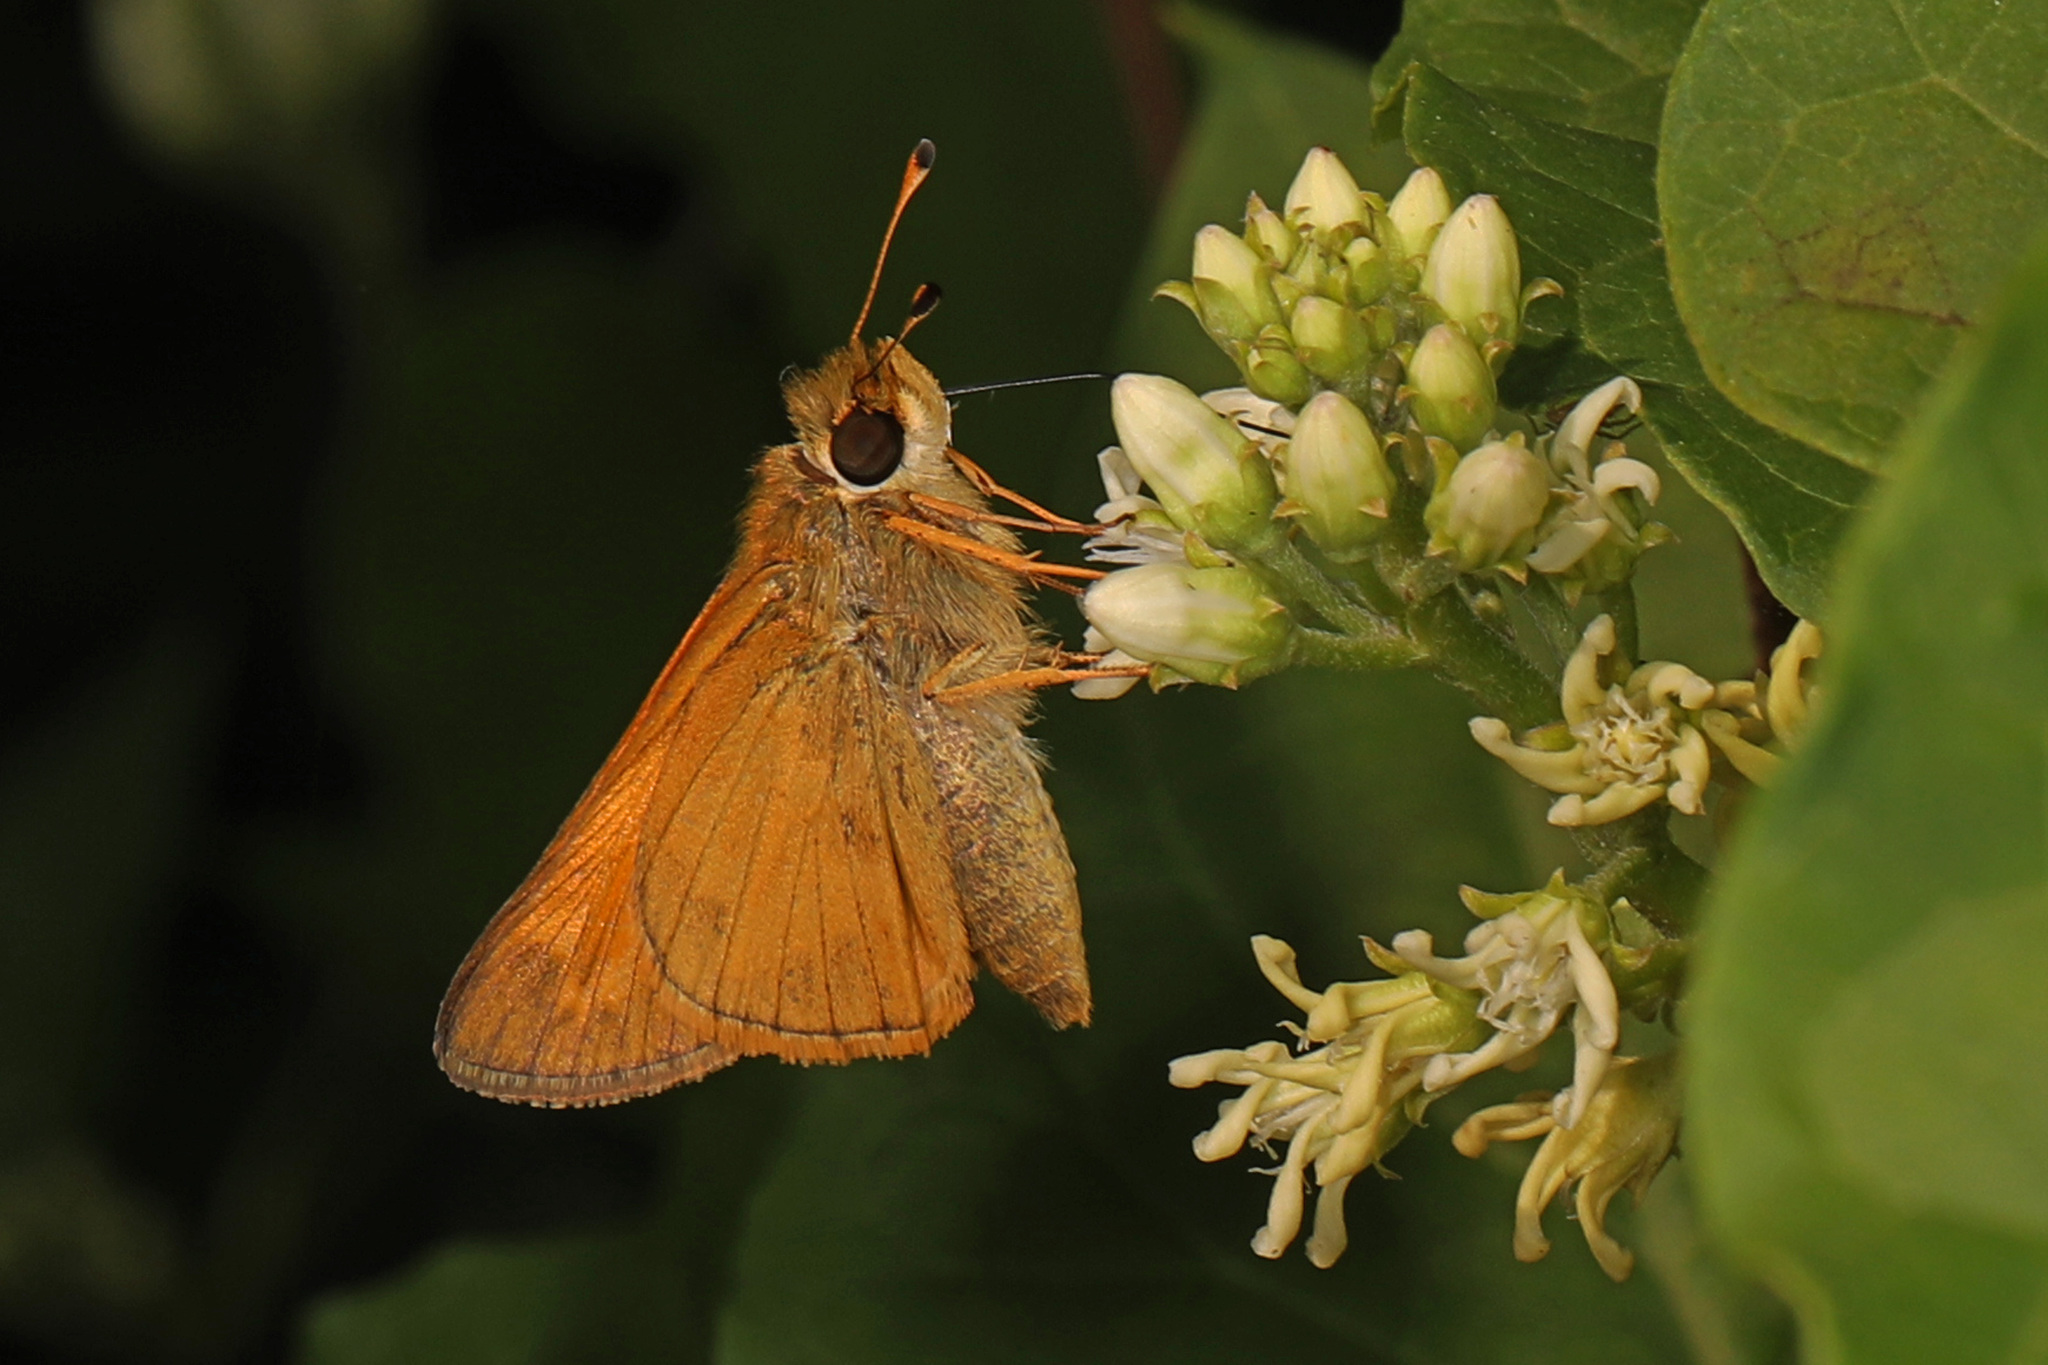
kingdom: Animalia
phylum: Arthropoda
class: Insecta
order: Lepidoptera
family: Hesperiidae
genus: Atalopedes
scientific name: Atalopedes
